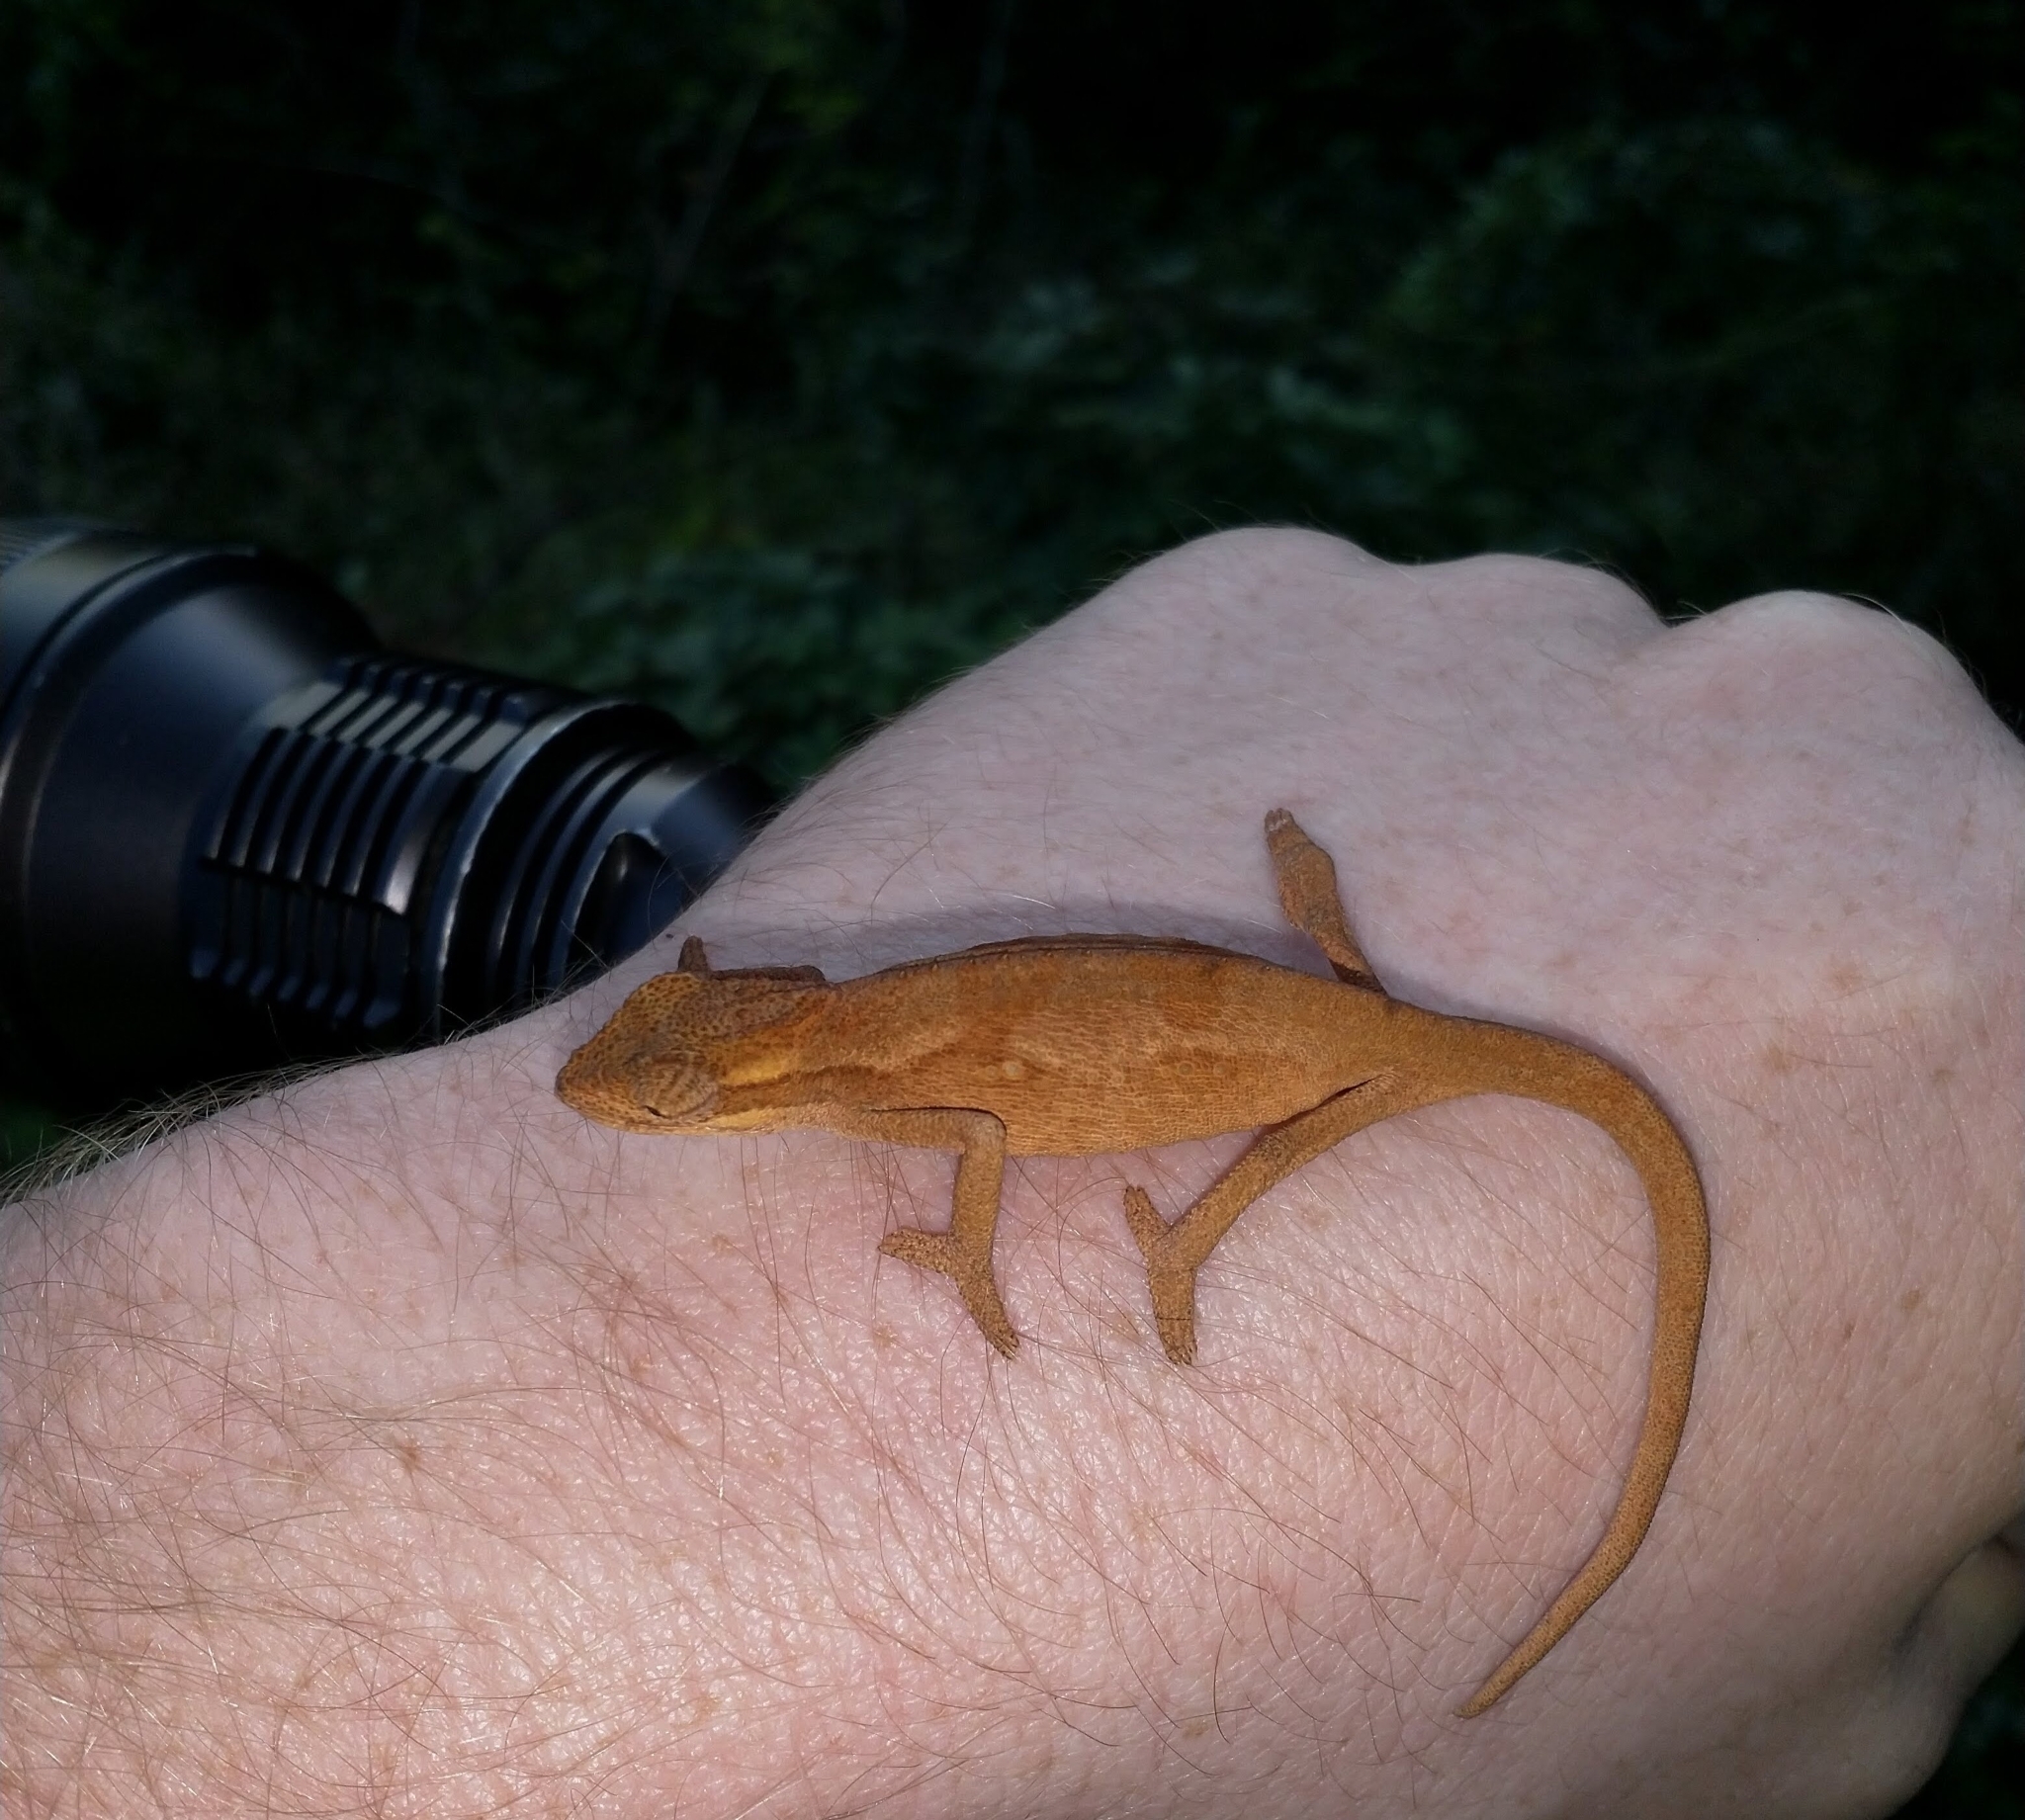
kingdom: Animalia
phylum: Chordata
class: Squamata
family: Chamaeleonidae
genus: Bradypodion
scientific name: Bradypodion melanocephalum
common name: Black-headed dwarf chameleon
